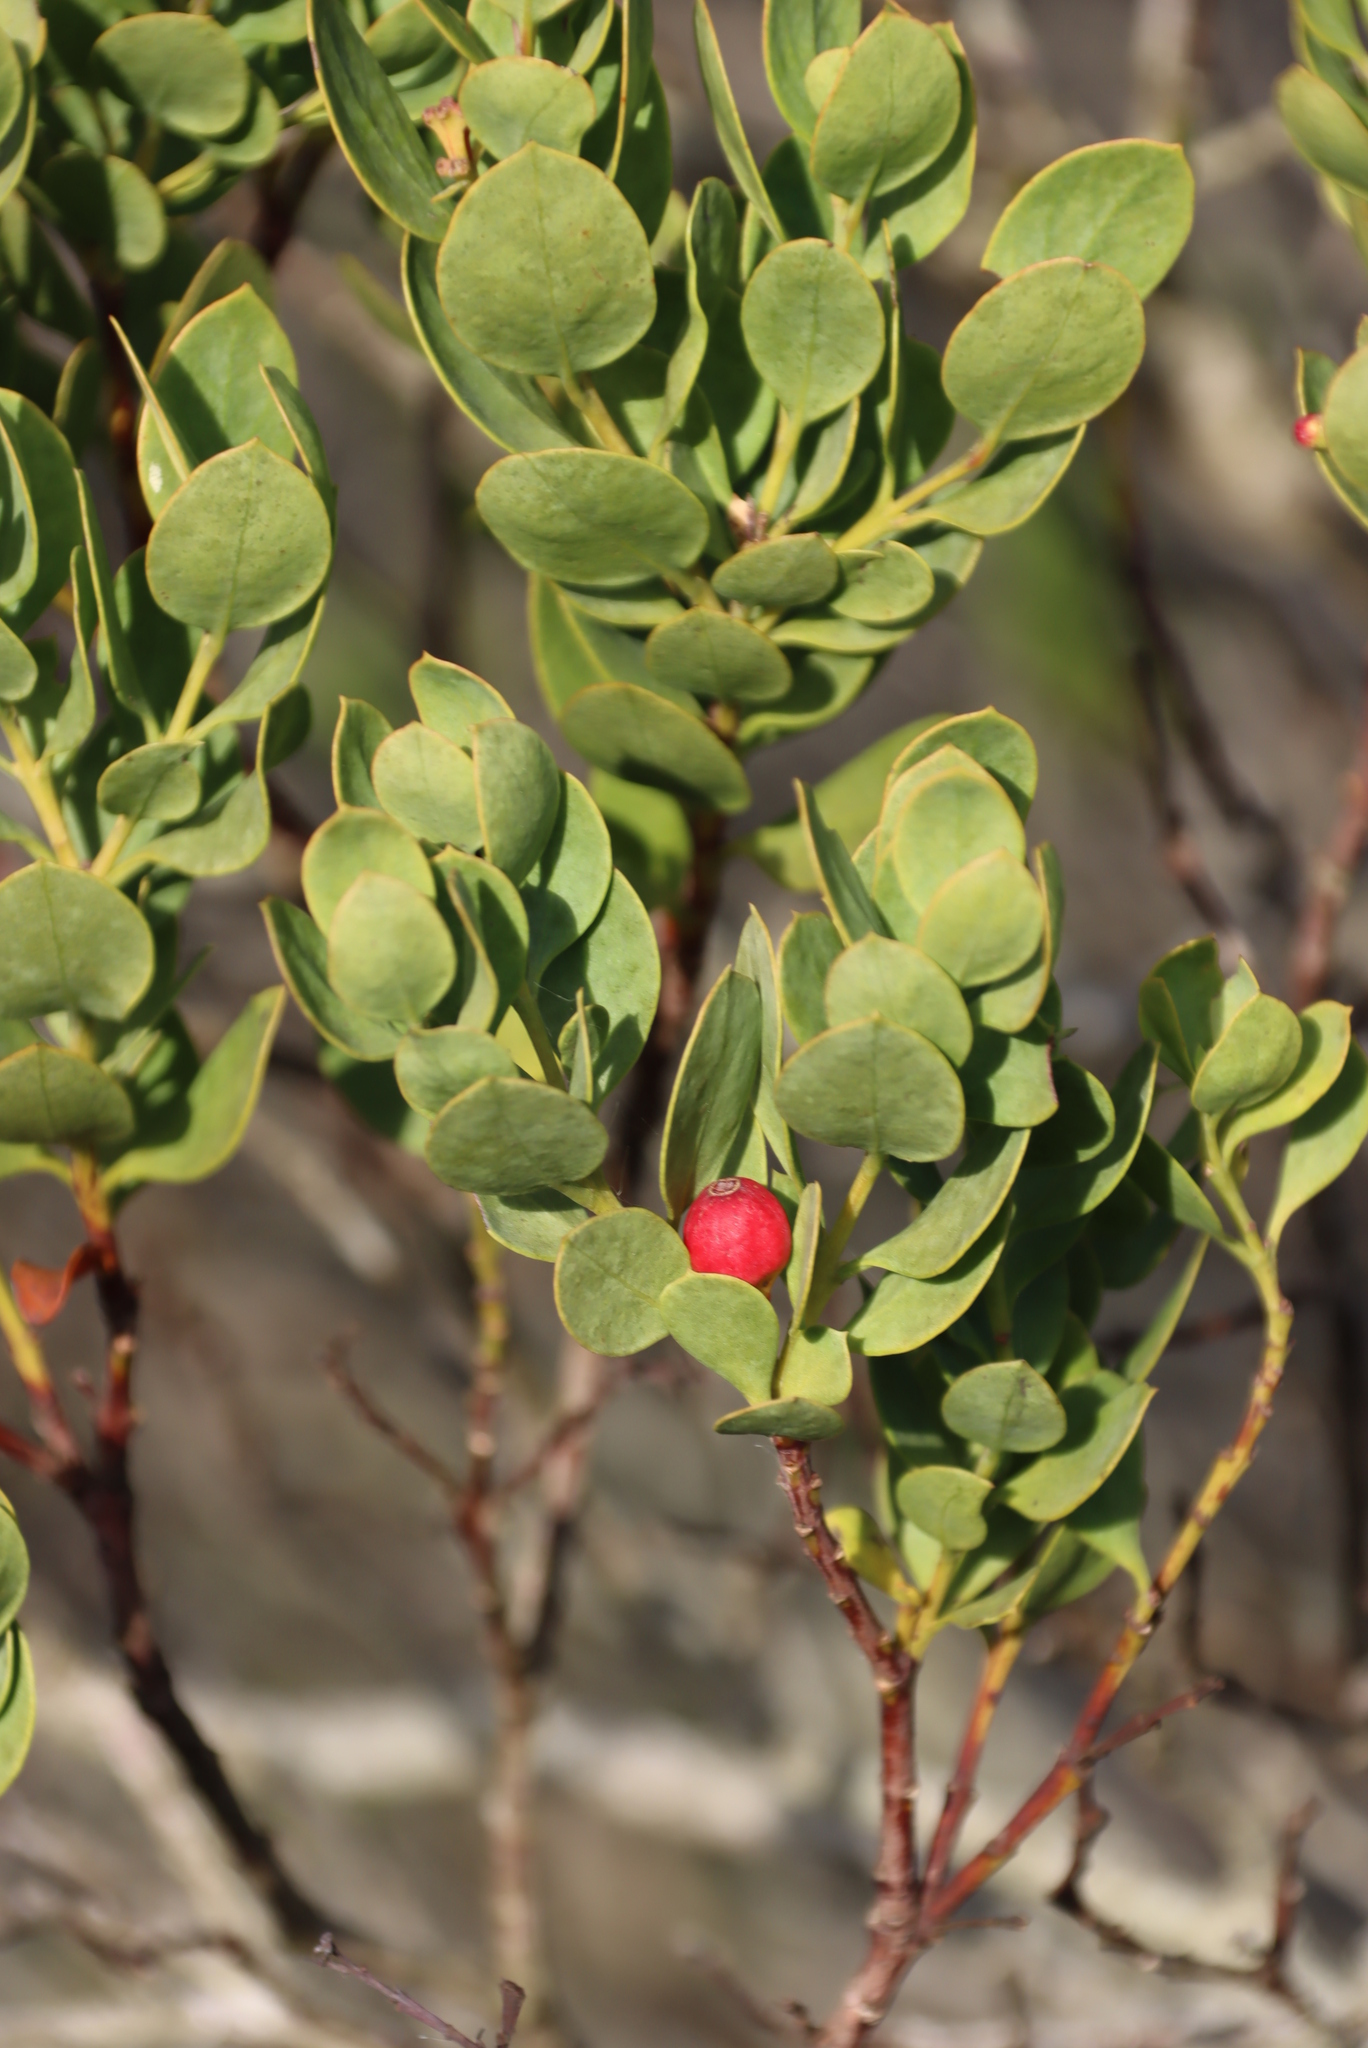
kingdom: Plantae
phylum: Tracheophyta
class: Magnoliopsida
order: Santalales
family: Santalaceae
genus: Osyris
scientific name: Osyris compressa
